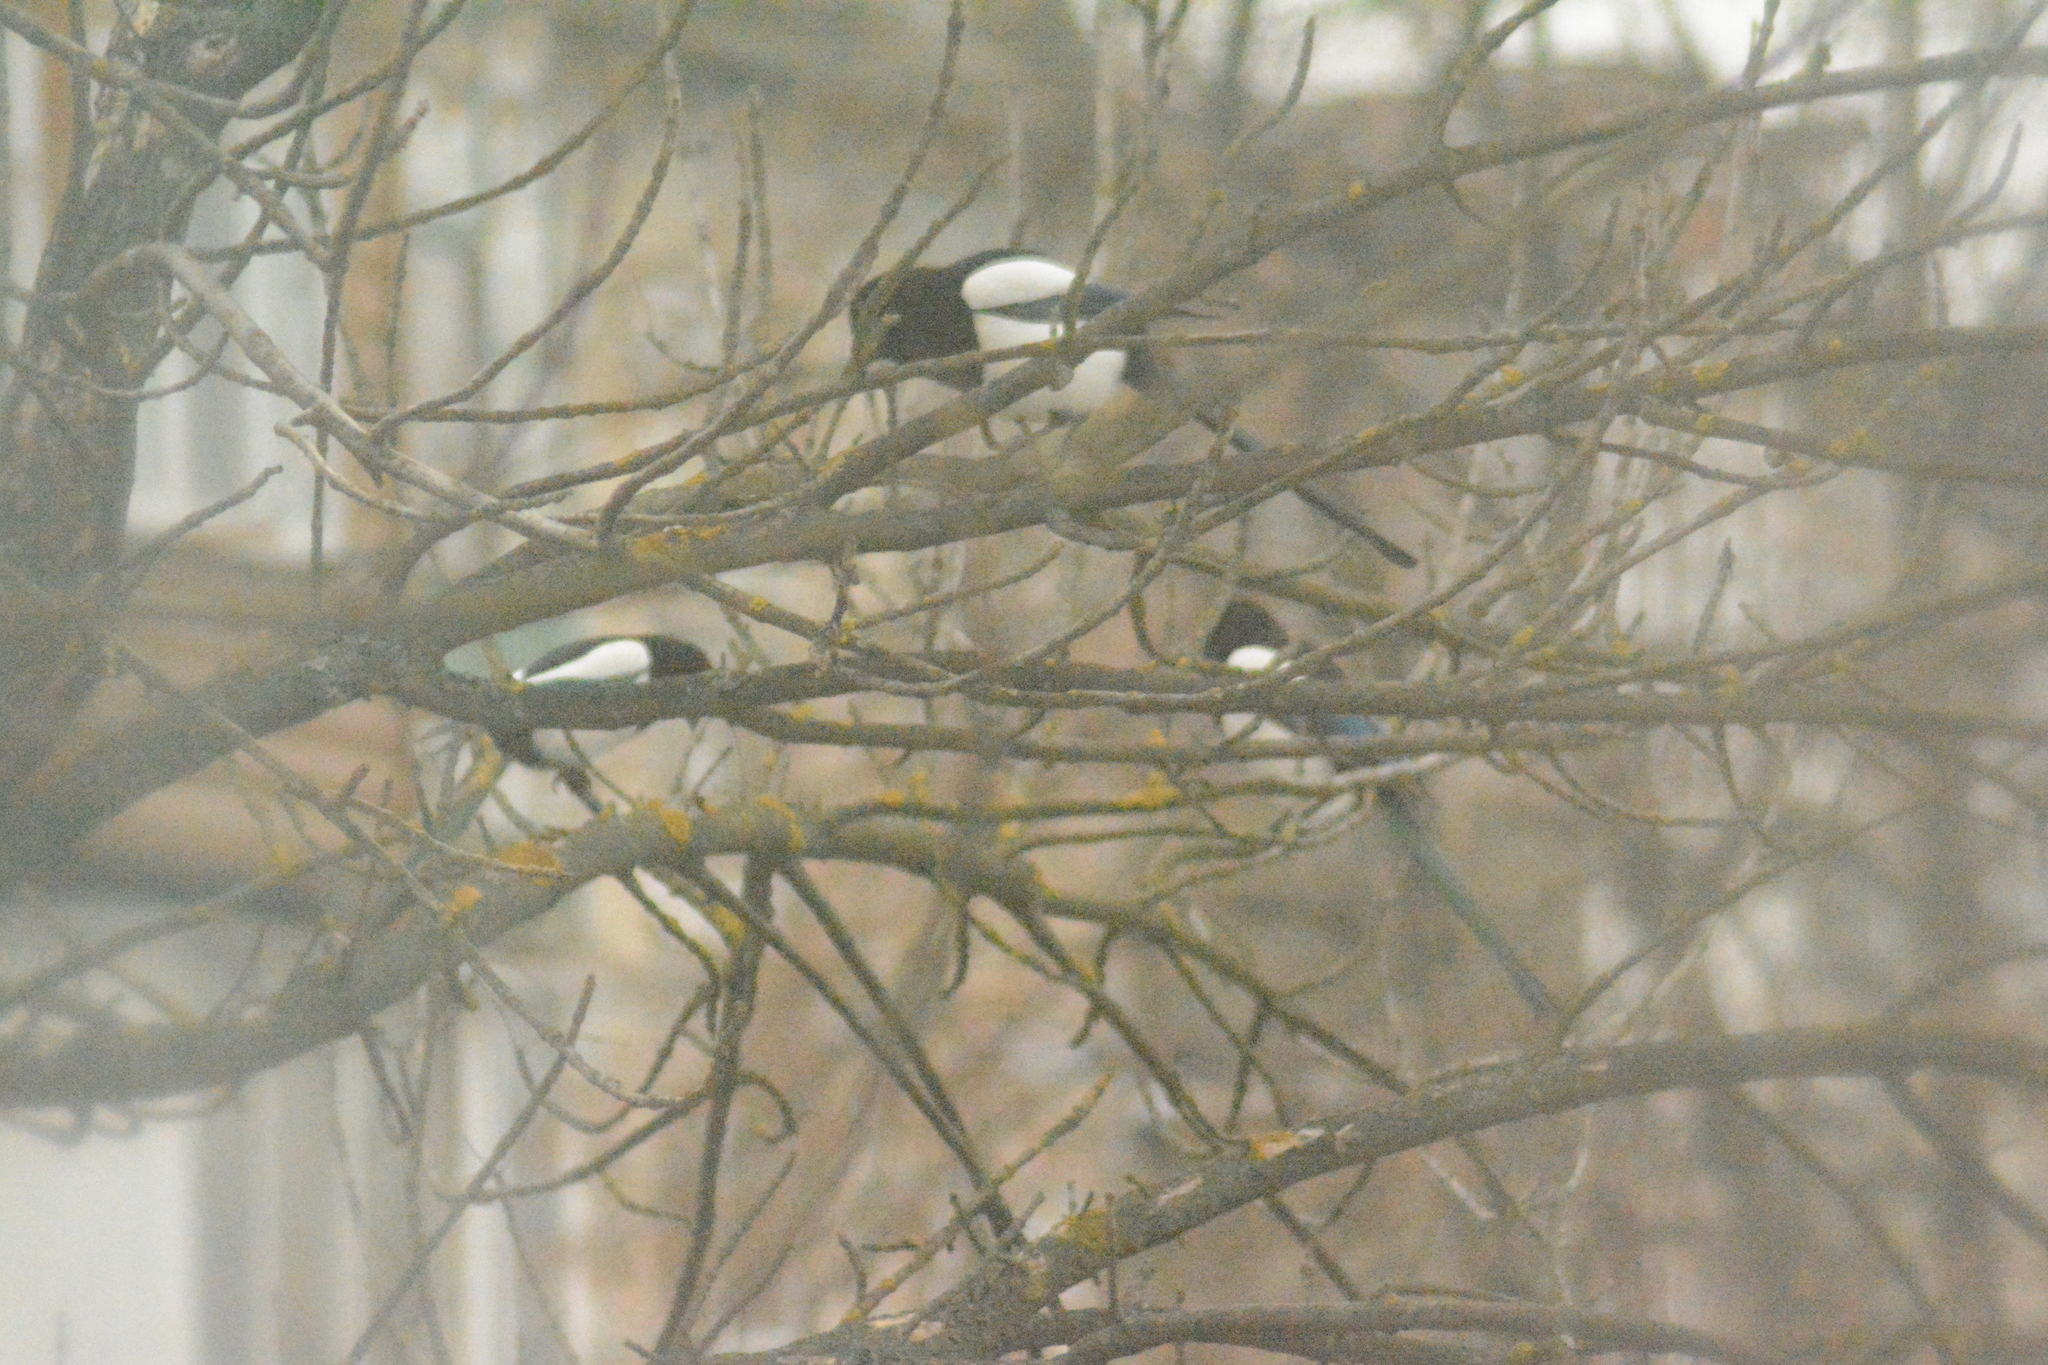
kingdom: Animalia
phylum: Chordata
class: Aves
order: Passeriformes
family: Corvidae
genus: Pica
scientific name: Pica pica
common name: Eurasian magpie
